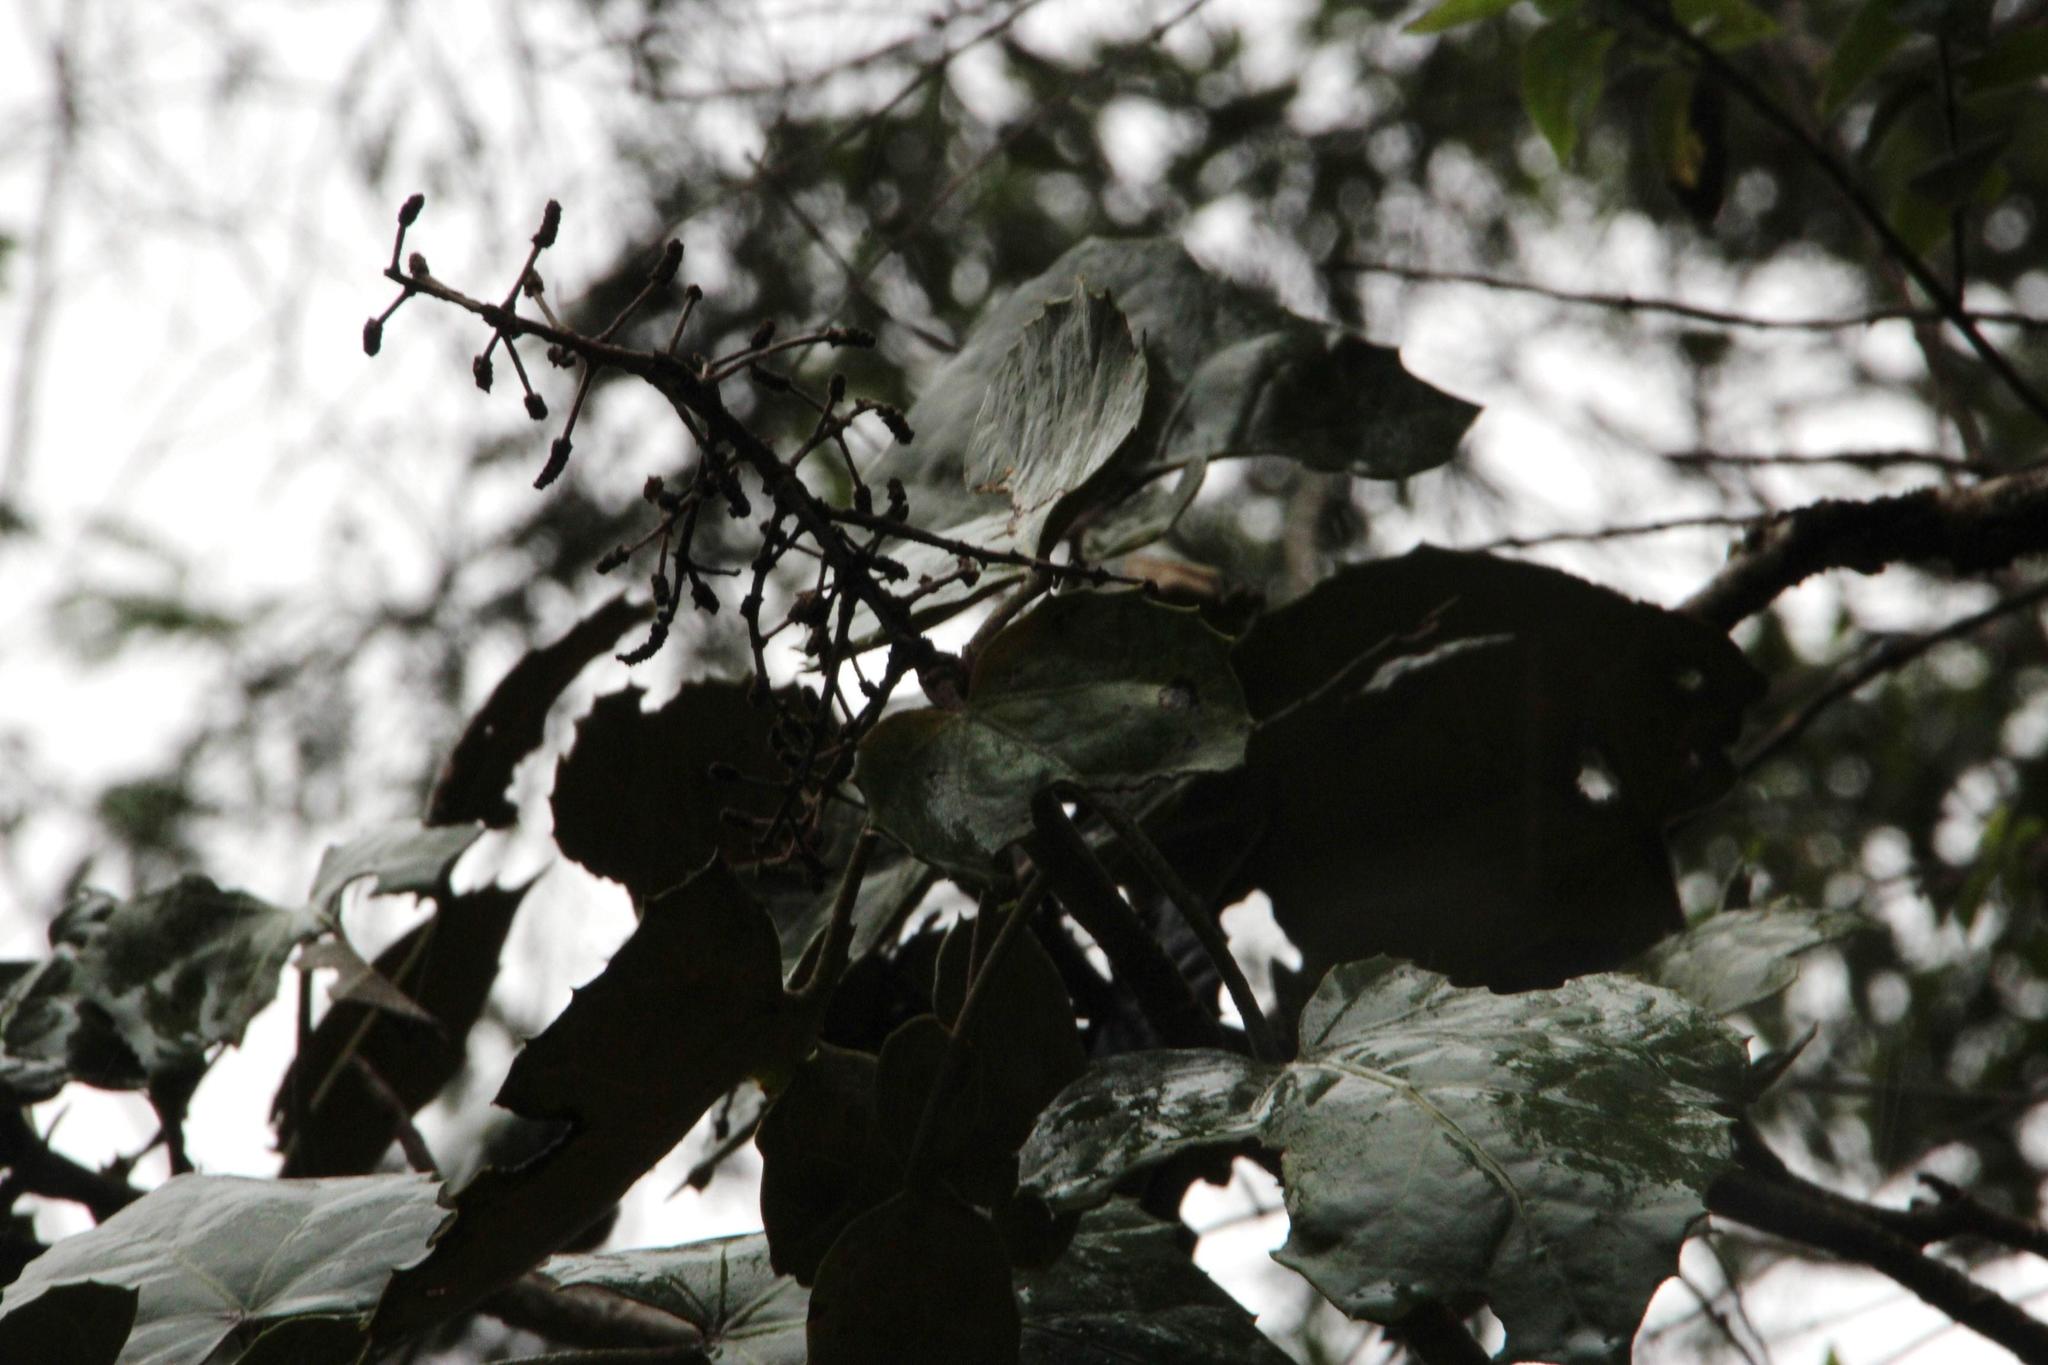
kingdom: Plantae
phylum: Tracheophyta
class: Magnoliopsida
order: Apiales
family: Araliaceae
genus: Oreopanax
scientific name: Oreopanax apurimacensis
